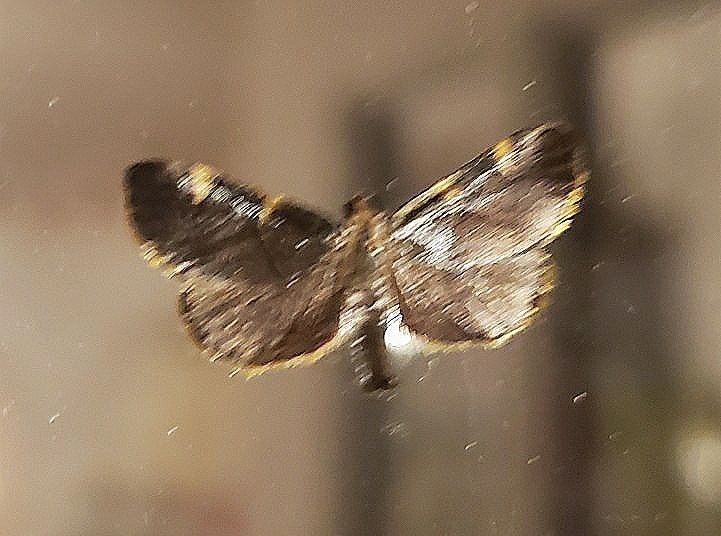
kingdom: Animalia
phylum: Arthropoda
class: Insecta
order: Lepidoptera
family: Pyralidae
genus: Hypsopygia
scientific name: Hypsopygia olinalis
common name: Yellow-fringed dolichomia moth
